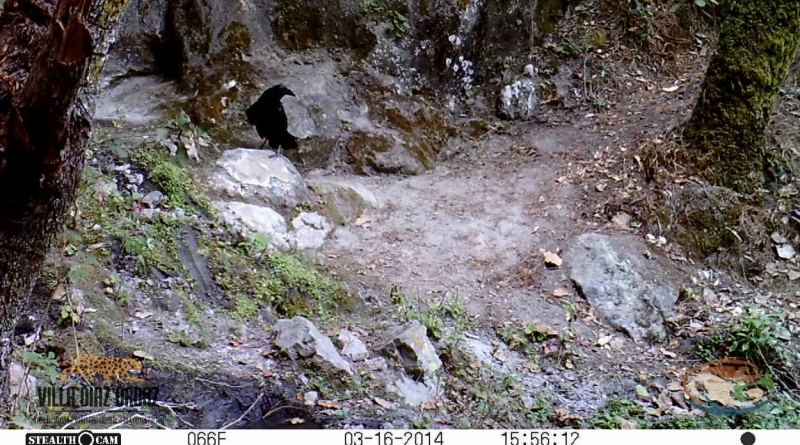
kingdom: Animalia
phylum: Chordata
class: Aves
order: Passeriformes
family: Corvidae
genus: Corvus
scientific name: Corvus corax
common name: Common raven
